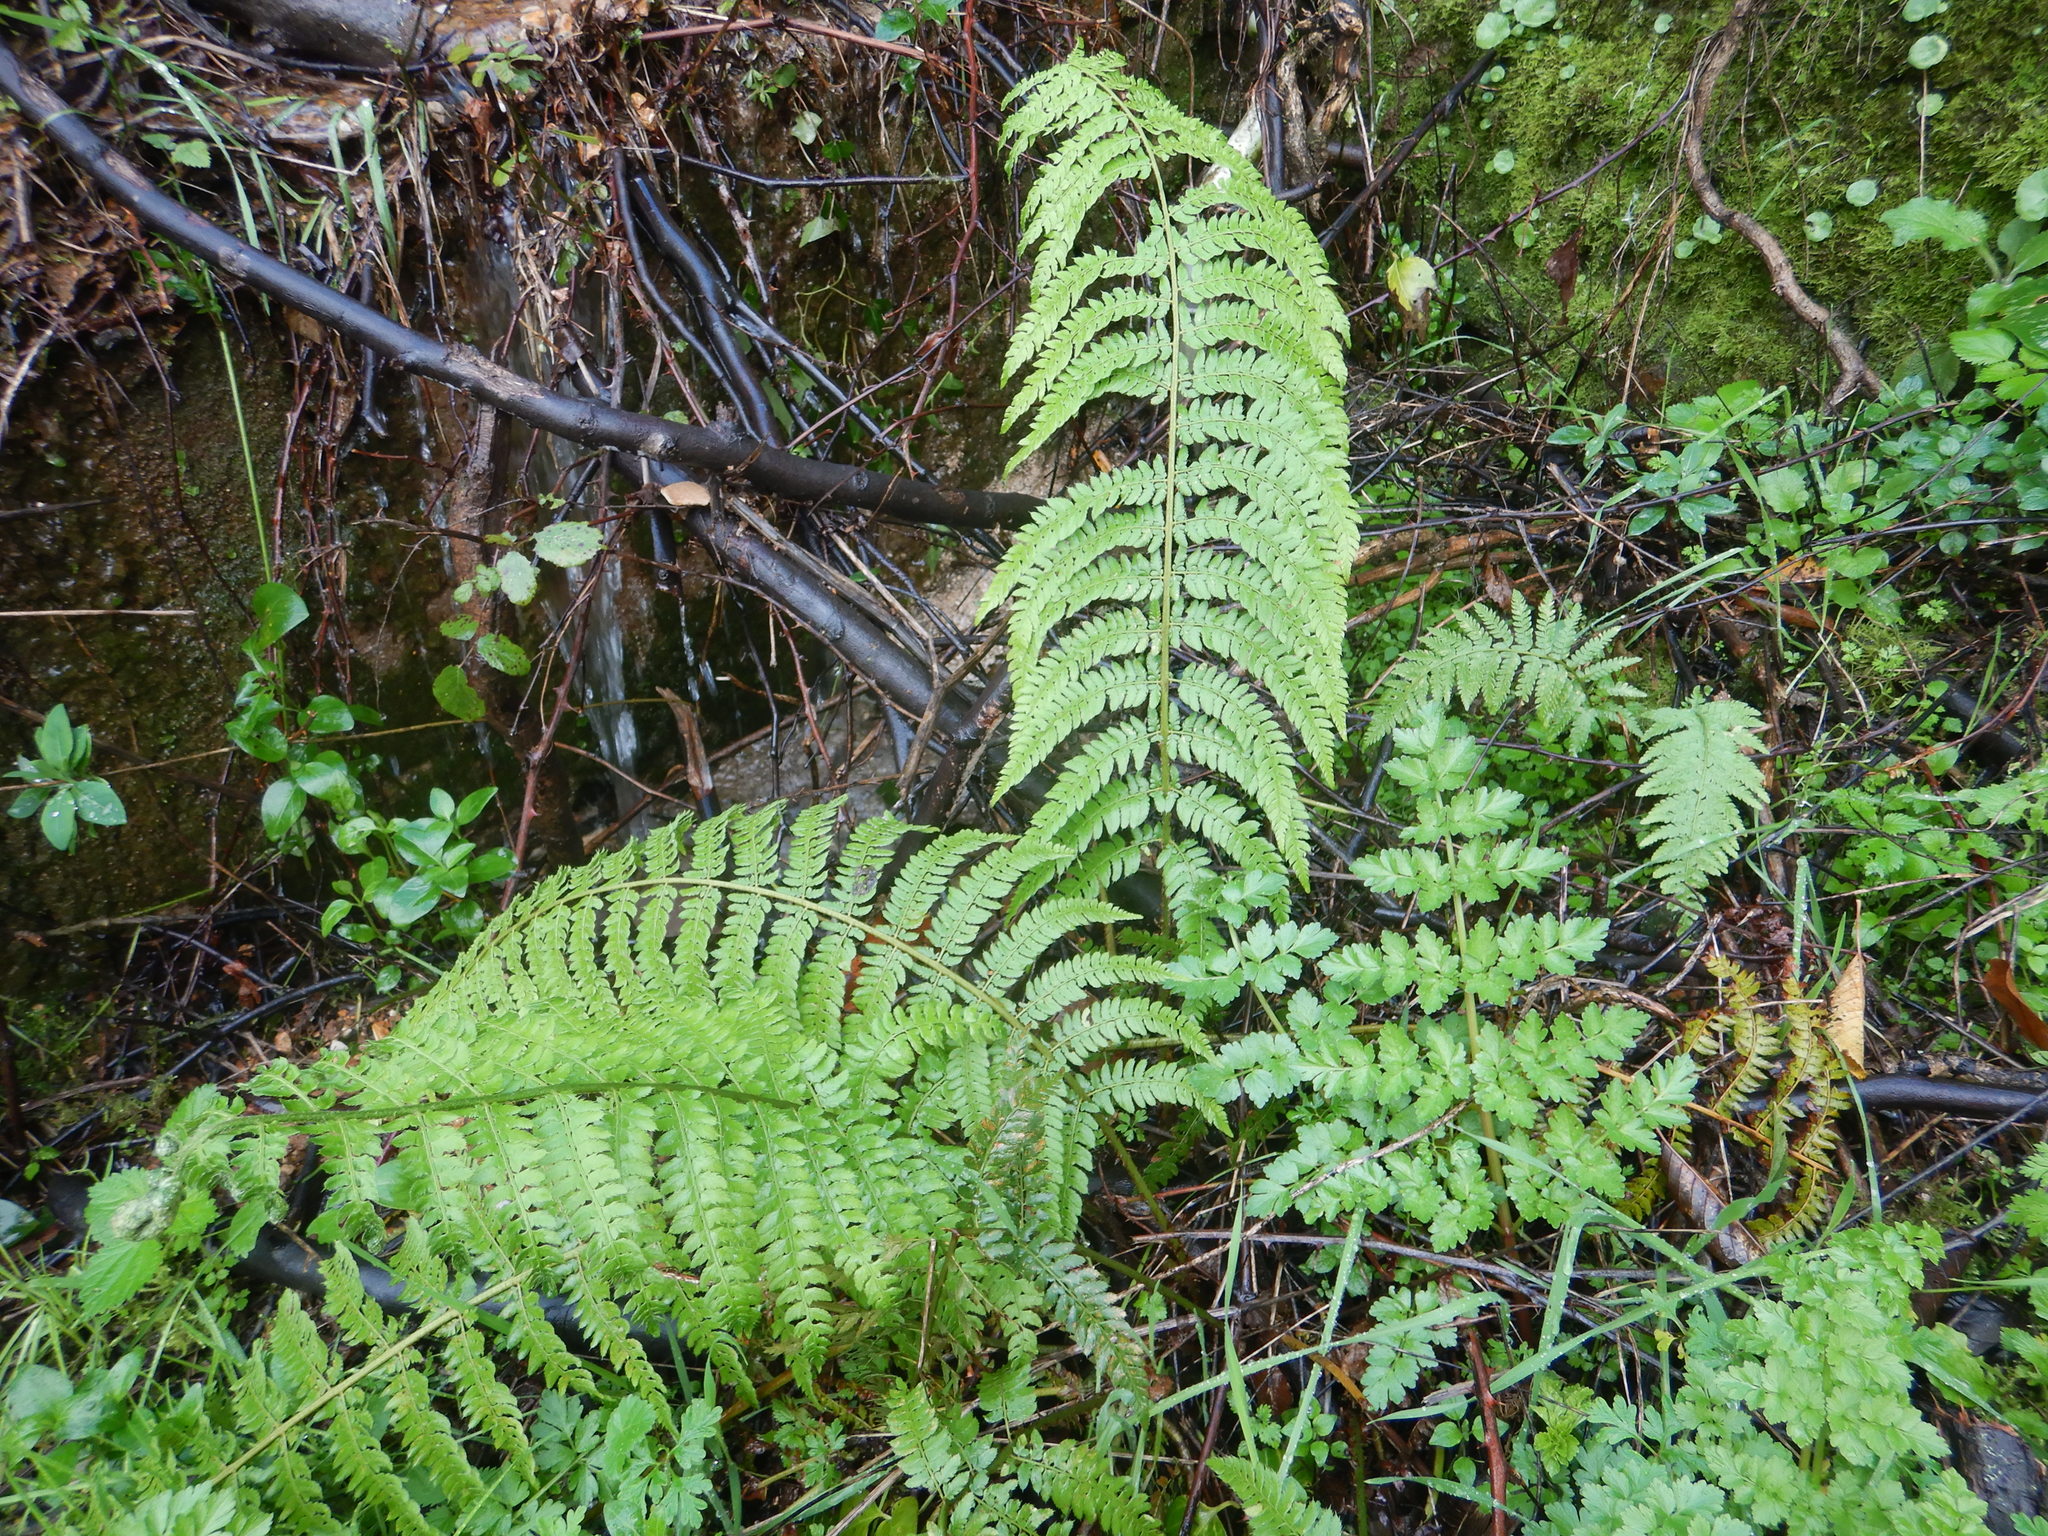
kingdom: Plantae
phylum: Tracheophyta
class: Polypodiopsida
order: Polypodiales
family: Dryopteridaceae
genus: Polystichum
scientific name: Polystichum setiferum
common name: Soft shield-fern
